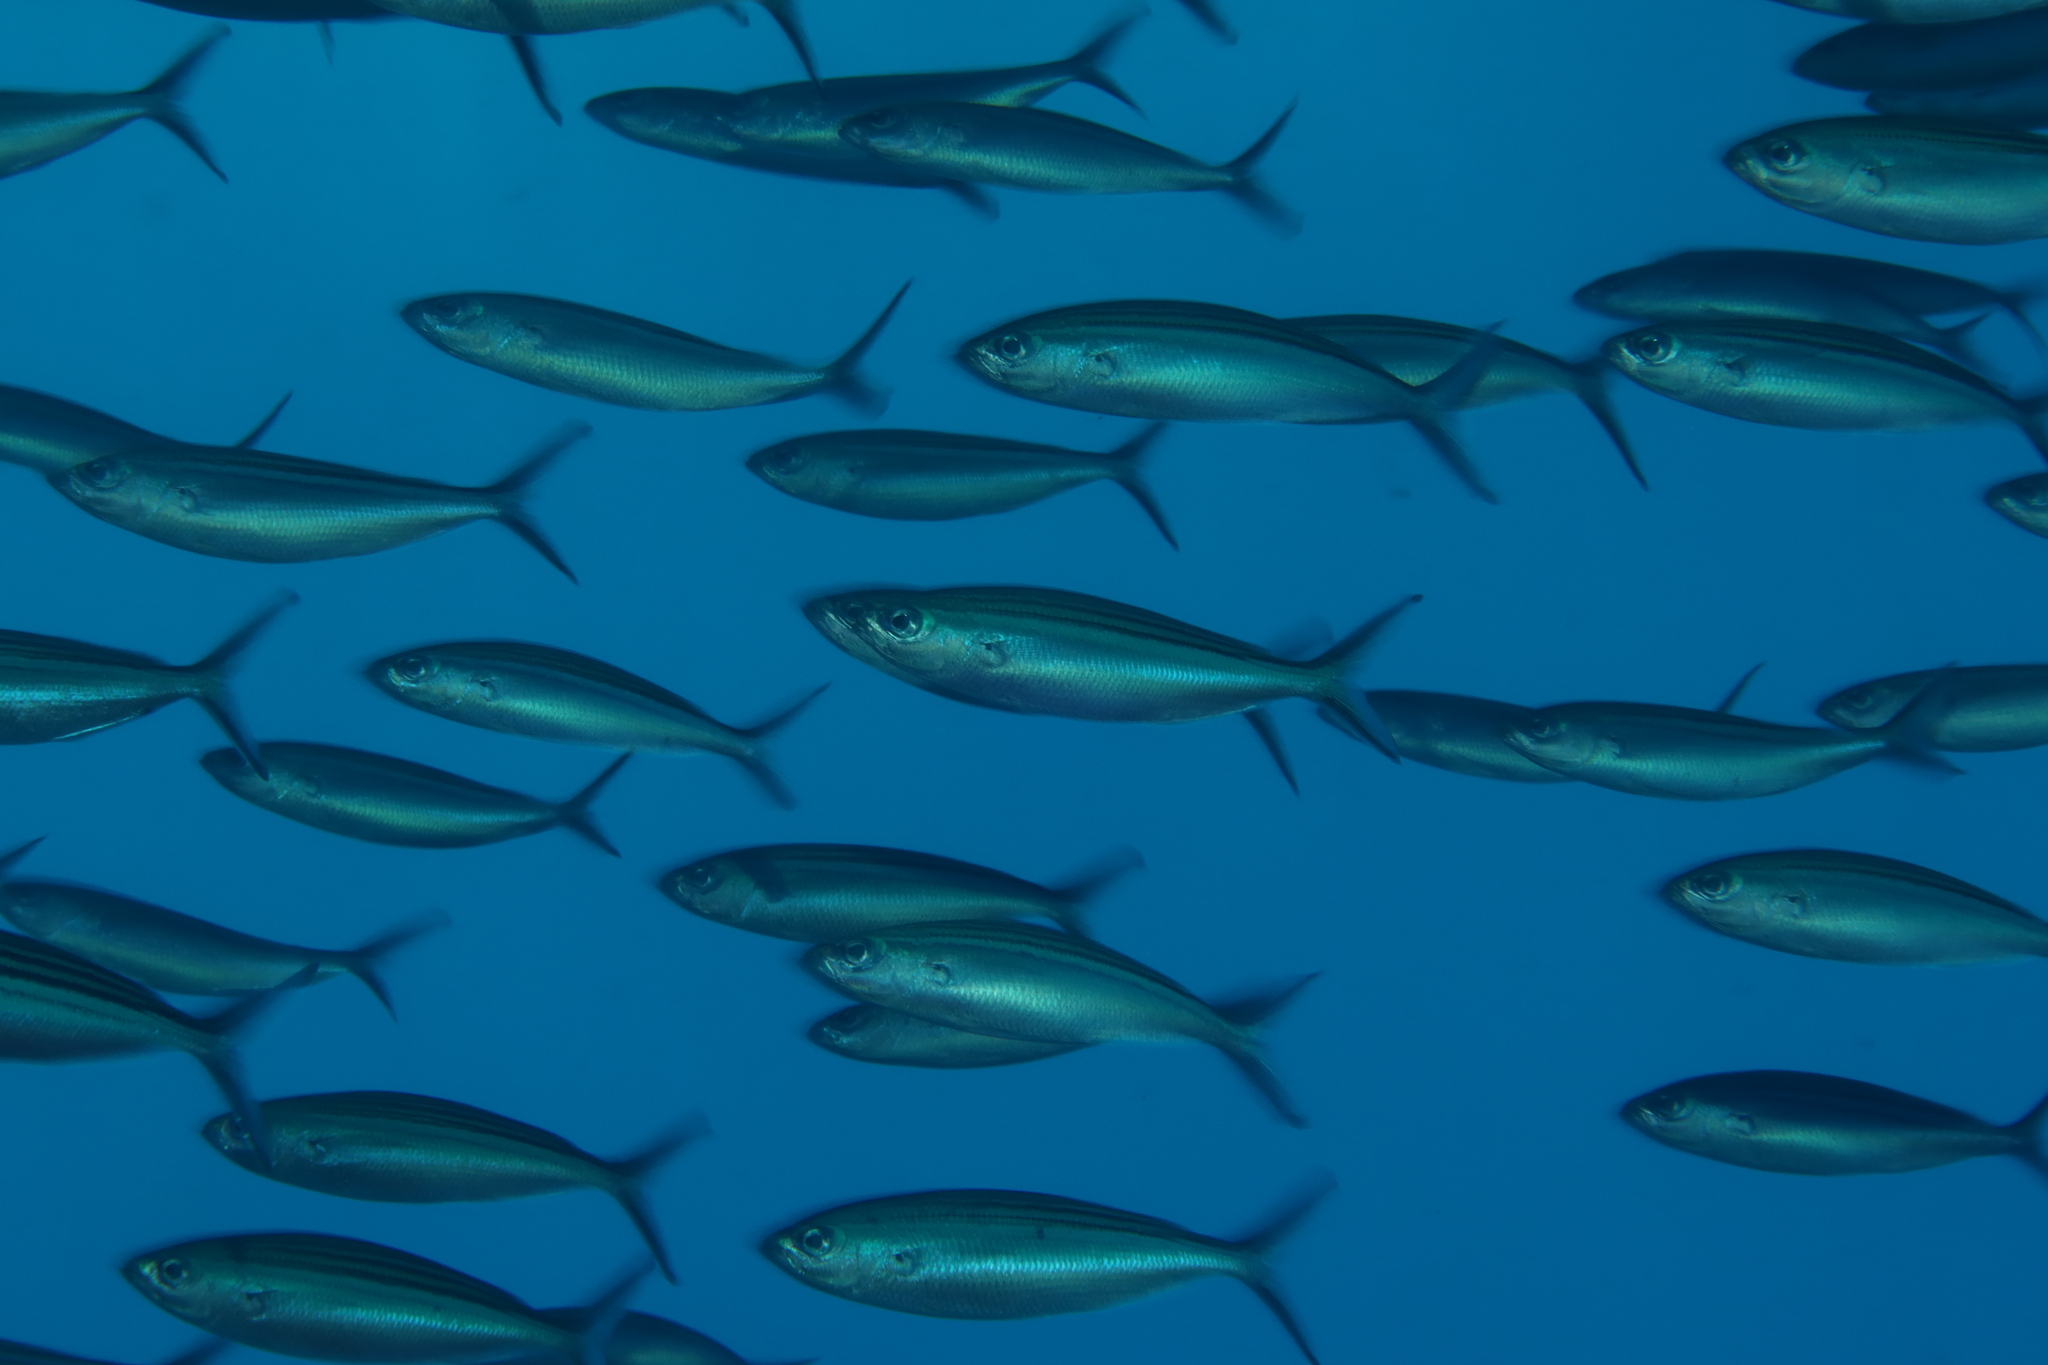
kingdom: Animalia
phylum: Chordata
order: Perciformes
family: Caesionidae
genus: Caesio
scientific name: Caesio striata
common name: Striated fusilier
